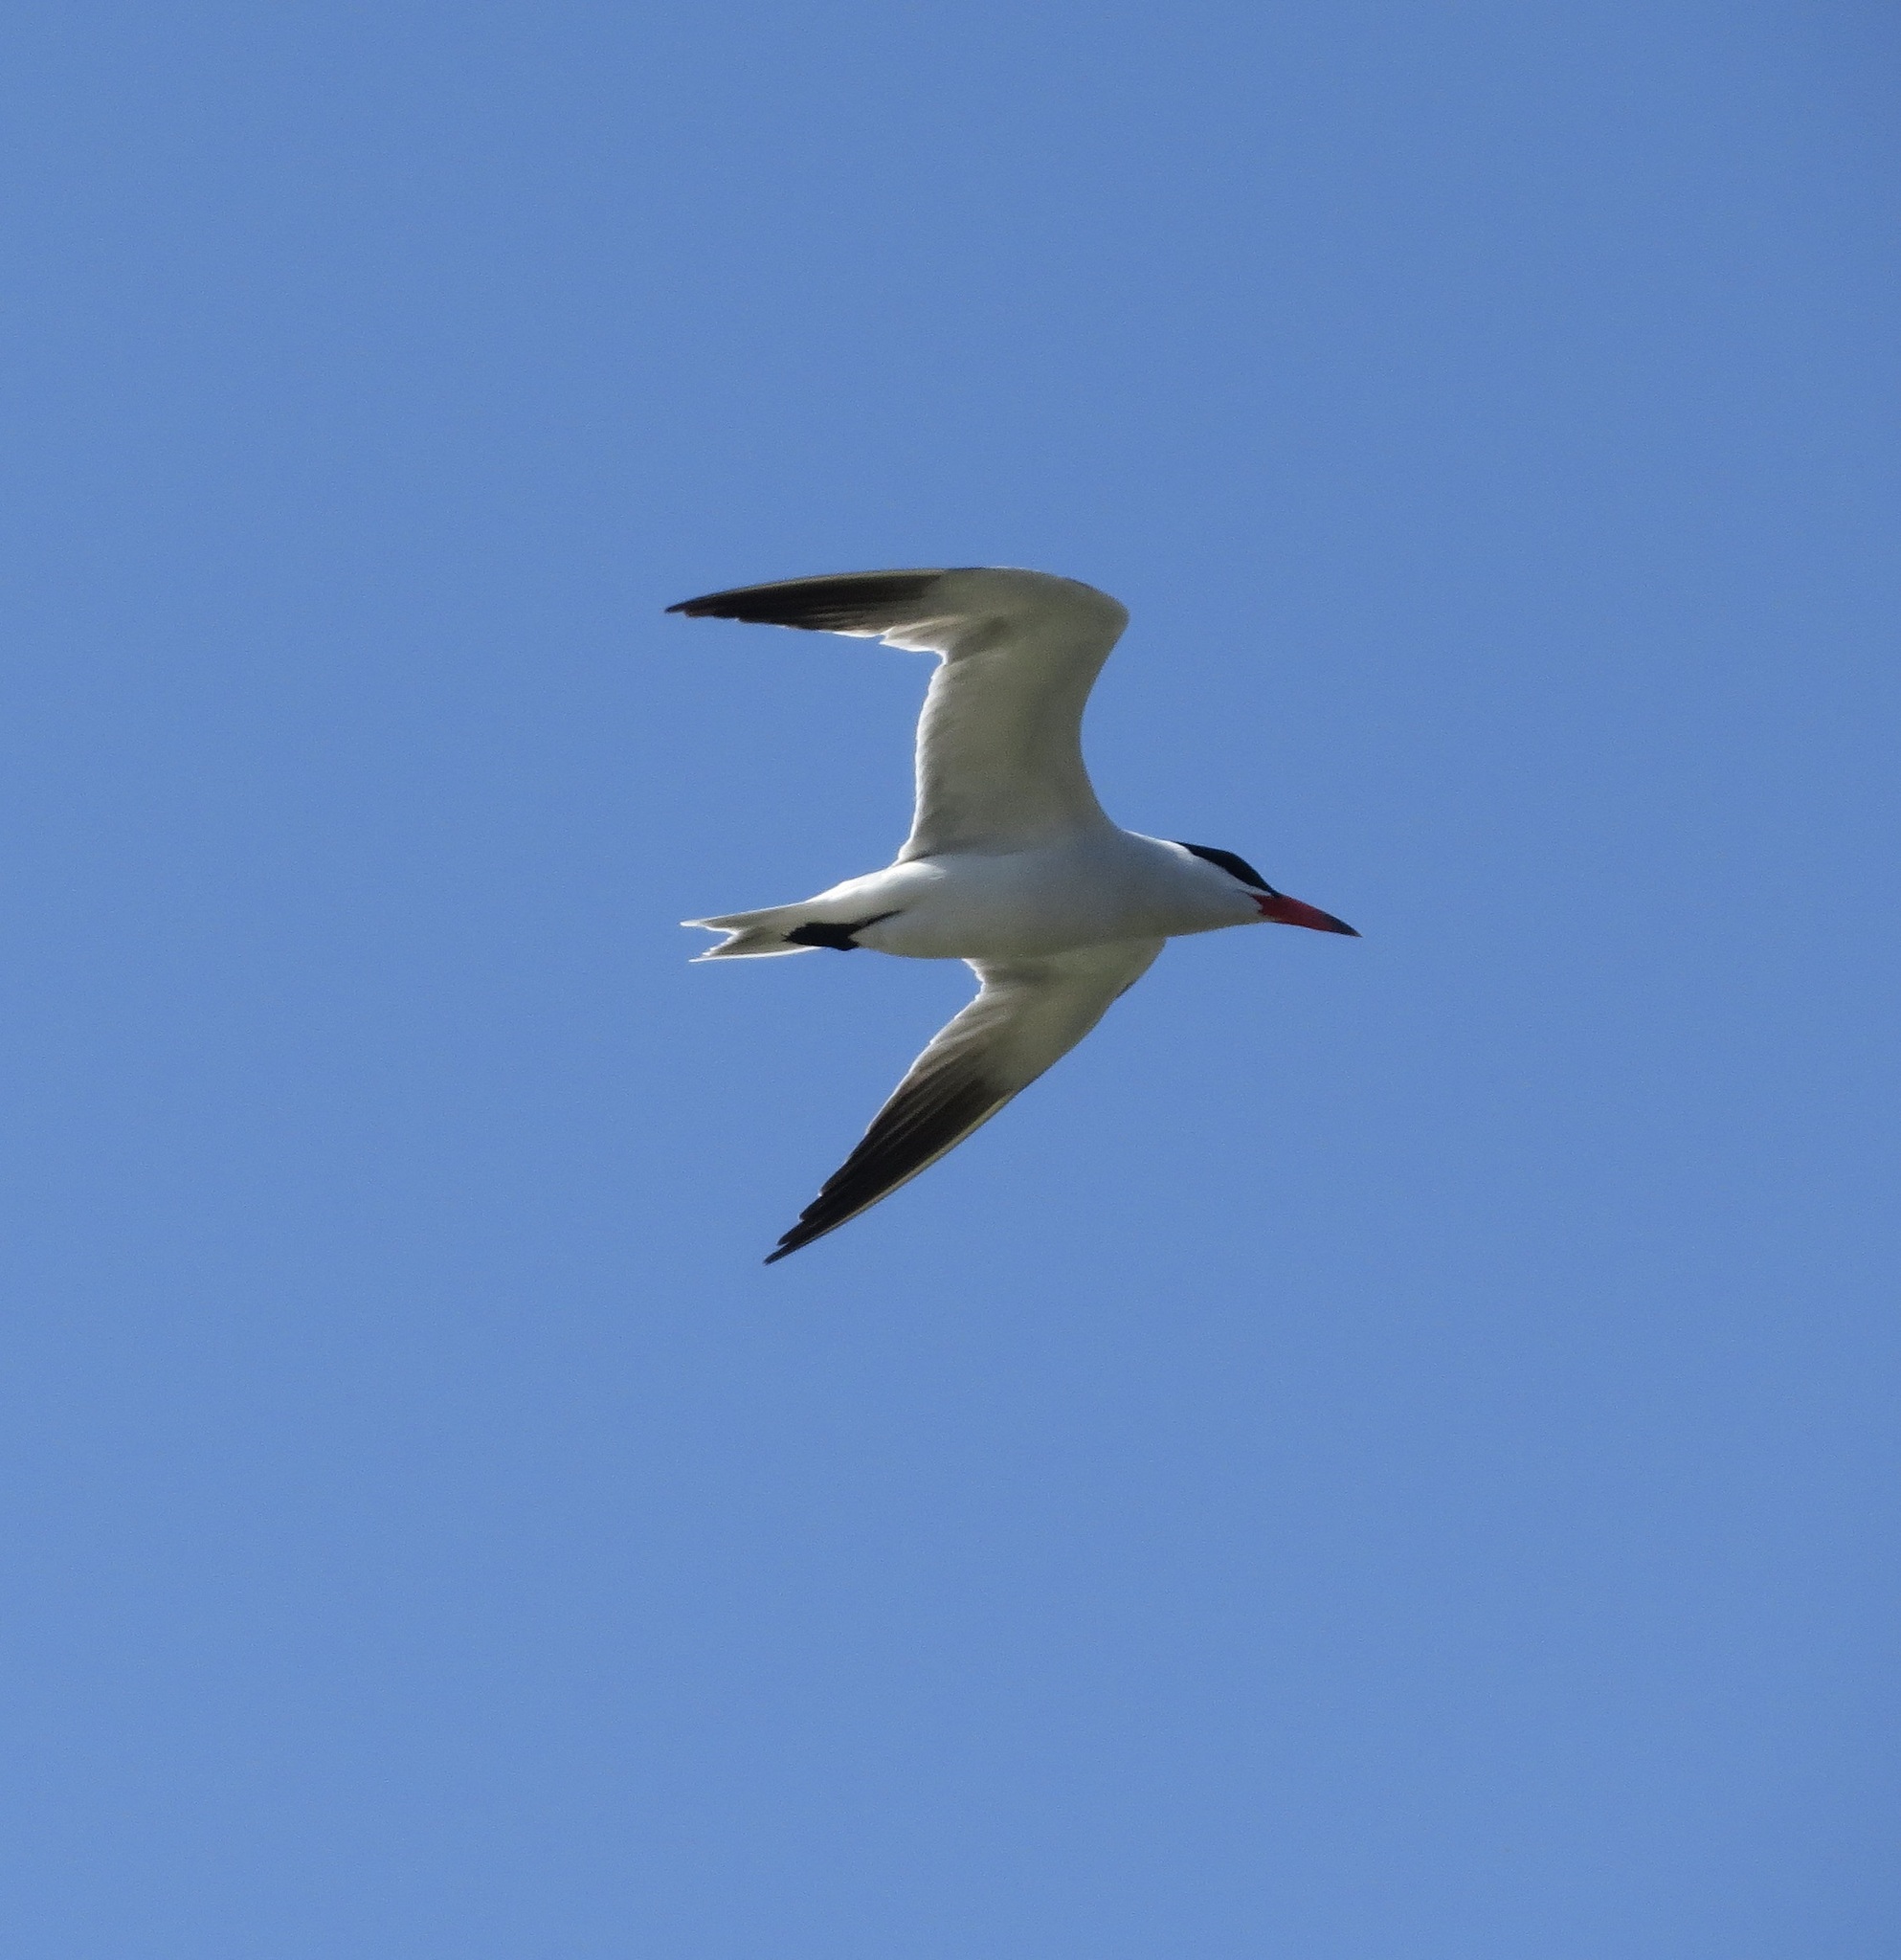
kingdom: Animalia
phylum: Chordata
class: Aves
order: Charadriiformes
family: Laridae
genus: Hydroprogne
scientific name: Hydroprogne caspia
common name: Caspian tern
